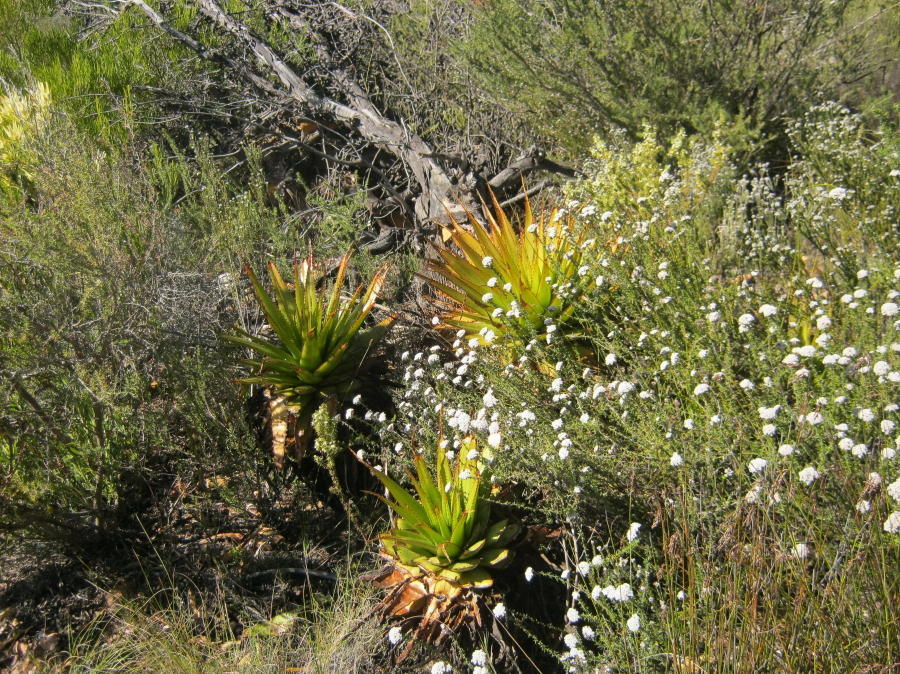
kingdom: Plantae
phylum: Tracheophyta
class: Liliopsida
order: Asparagales
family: Asphodelaceae
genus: Aloe
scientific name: Aloe lineata
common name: Lined red-spined aloe
